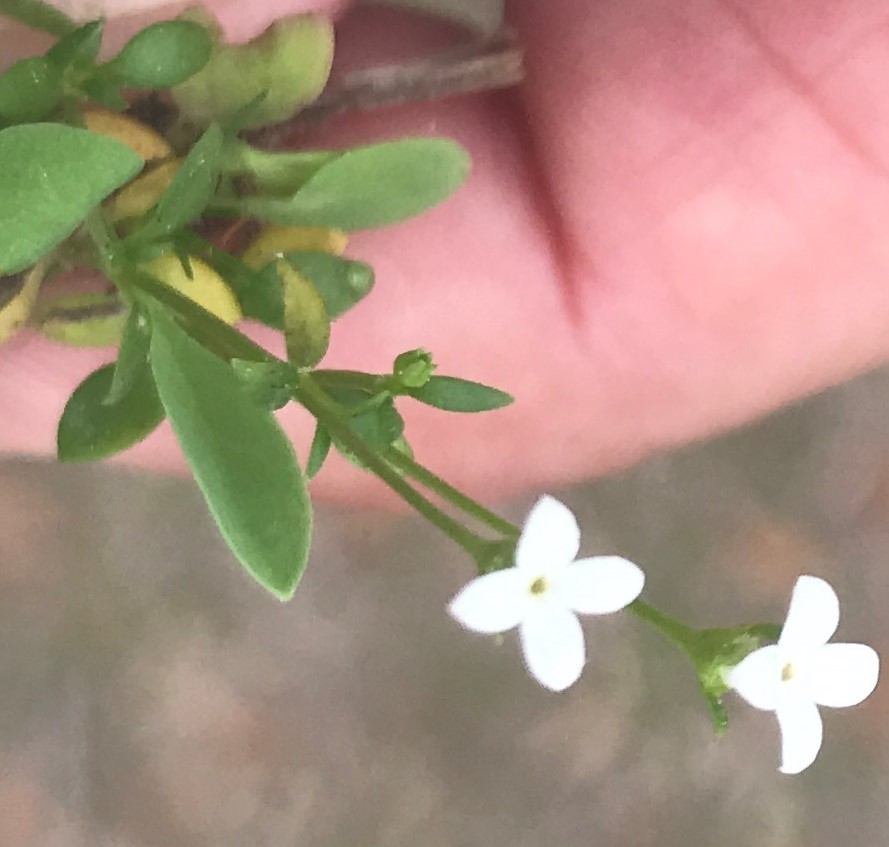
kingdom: Plantae
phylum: Tracheophyta
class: Magnoliopsida
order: Gentianales
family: Rubiaceae
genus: Houstonia
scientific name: Houstonia micrantha
